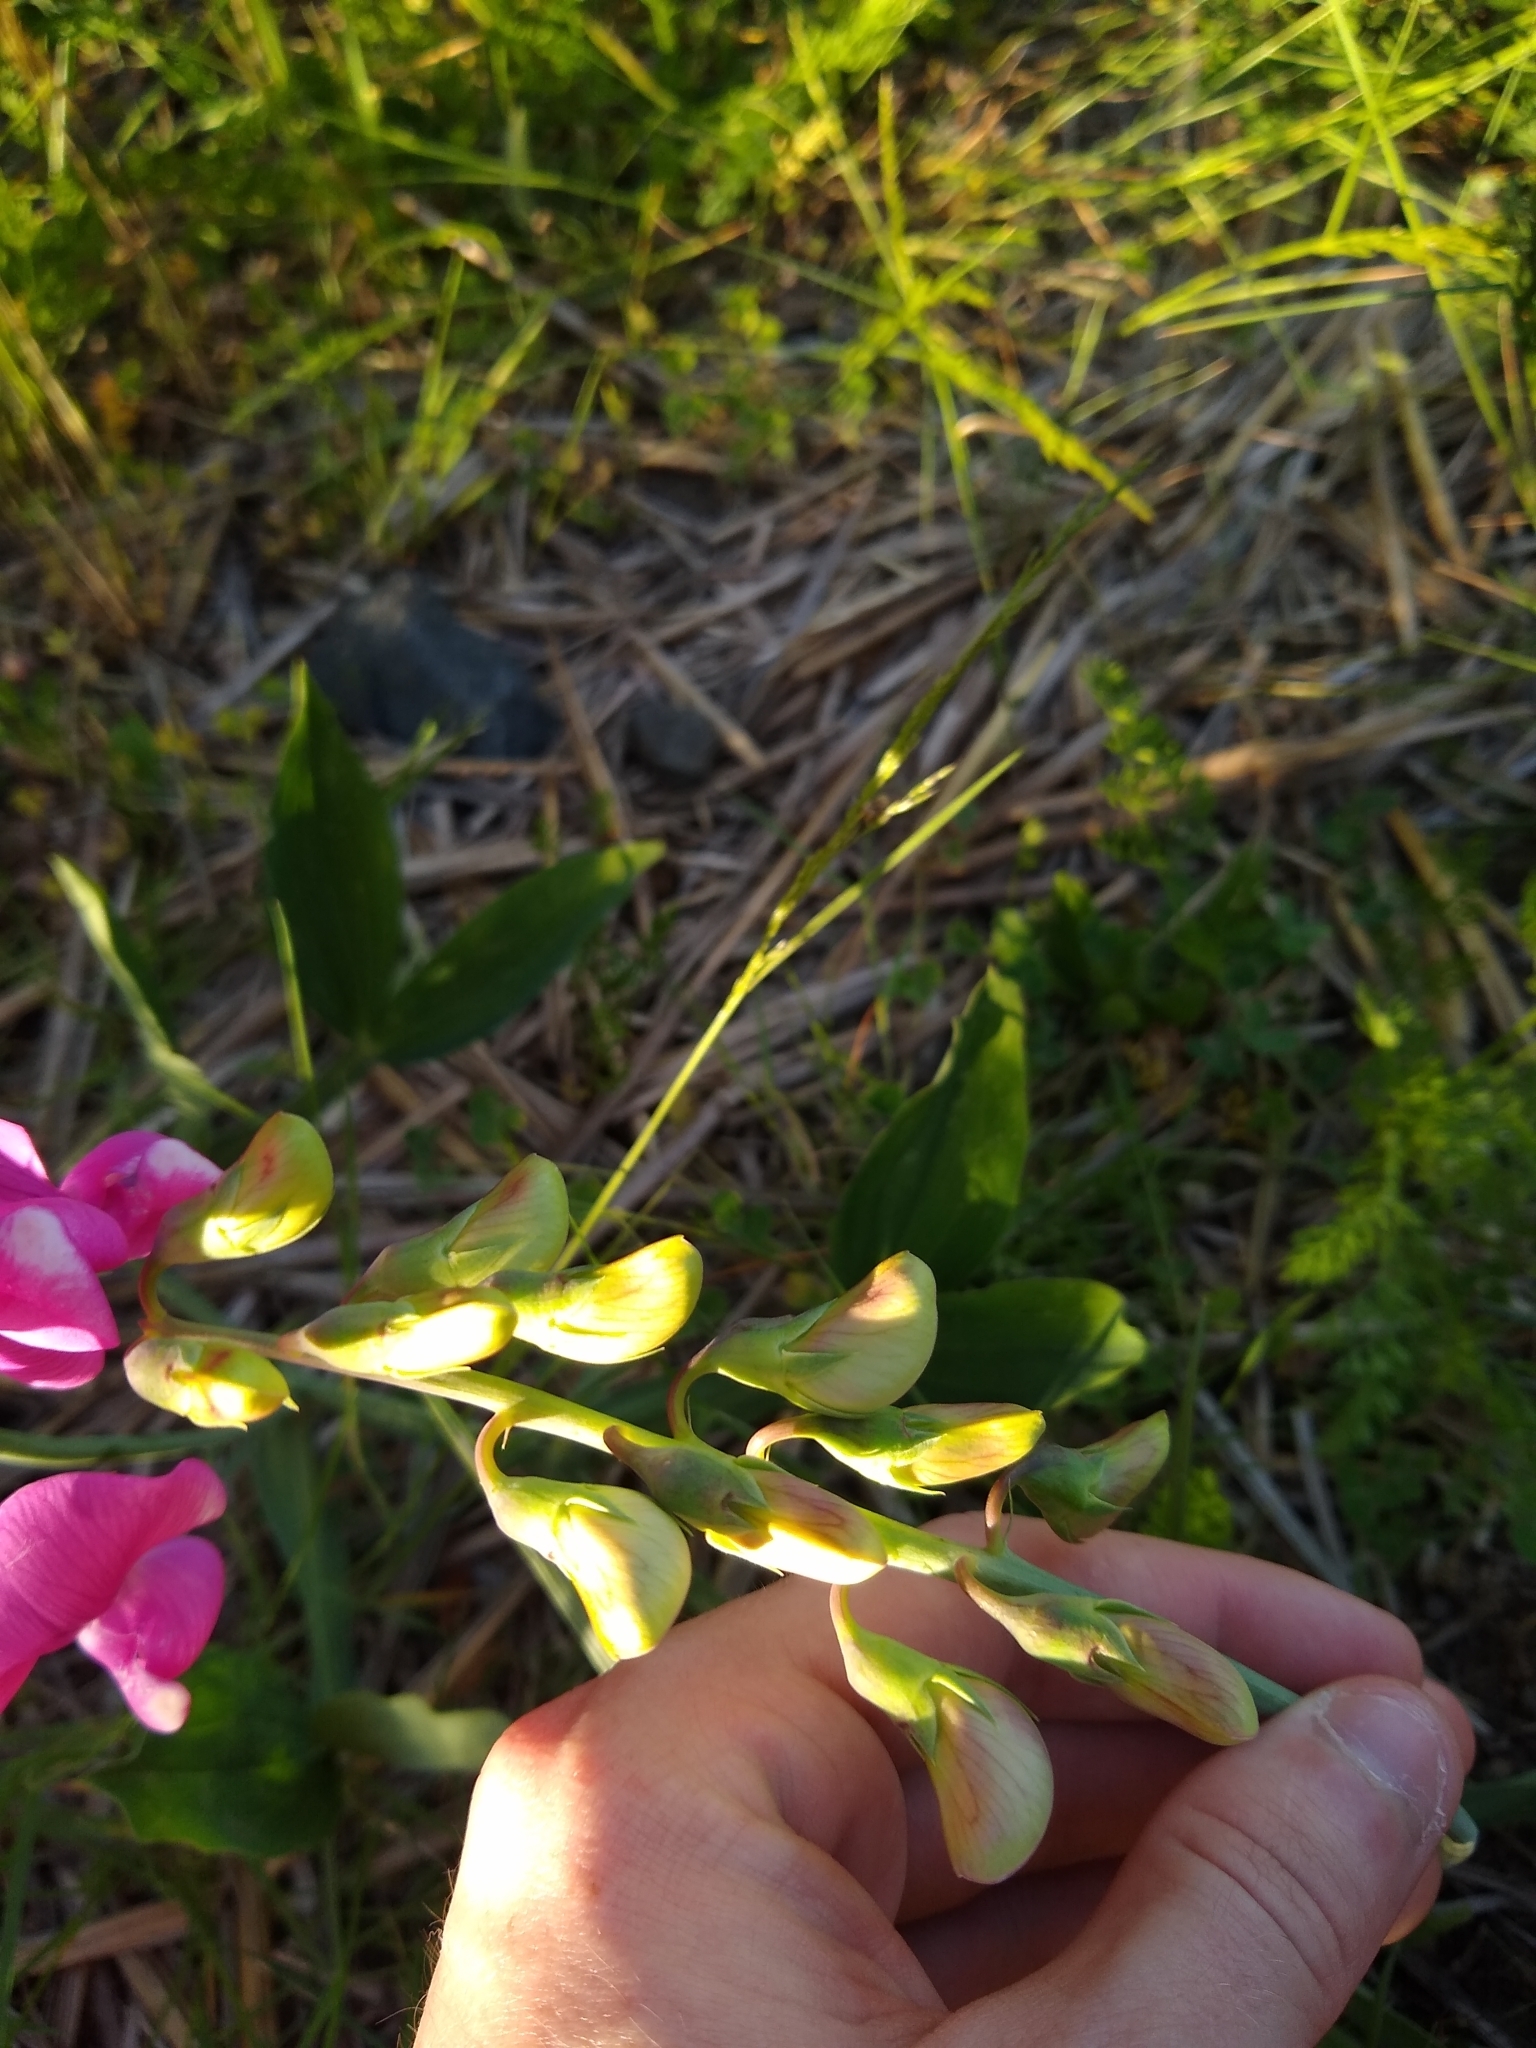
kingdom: Plantae
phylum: Tracheophyta
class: Magnoliopsida
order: Fabales
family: Fabaceae
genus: Lathyrus
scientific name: Lathyrus latifolius
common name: Perennial pea
